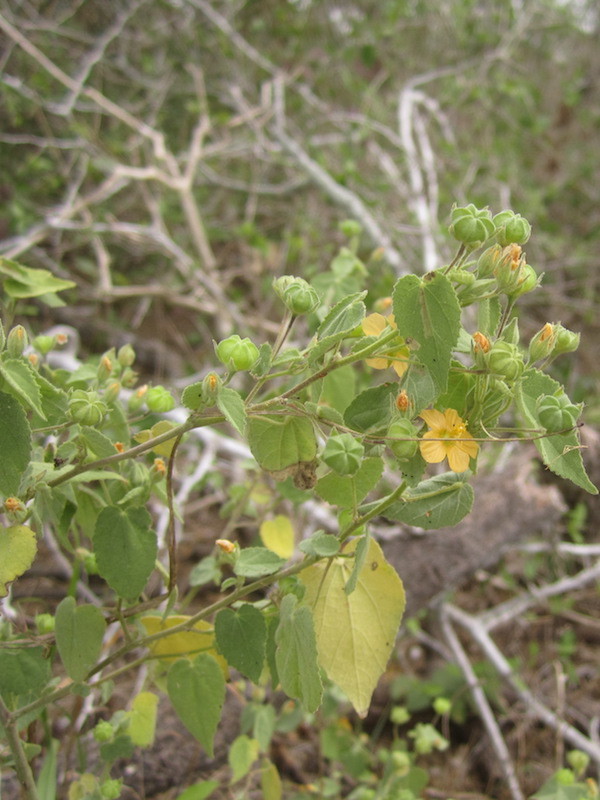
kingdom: Plantae
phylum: Tracheophyta
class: Magnoliopsida
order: Malvales
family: Malvaceae
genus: Abutilon
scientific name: Abutilon viscosum
